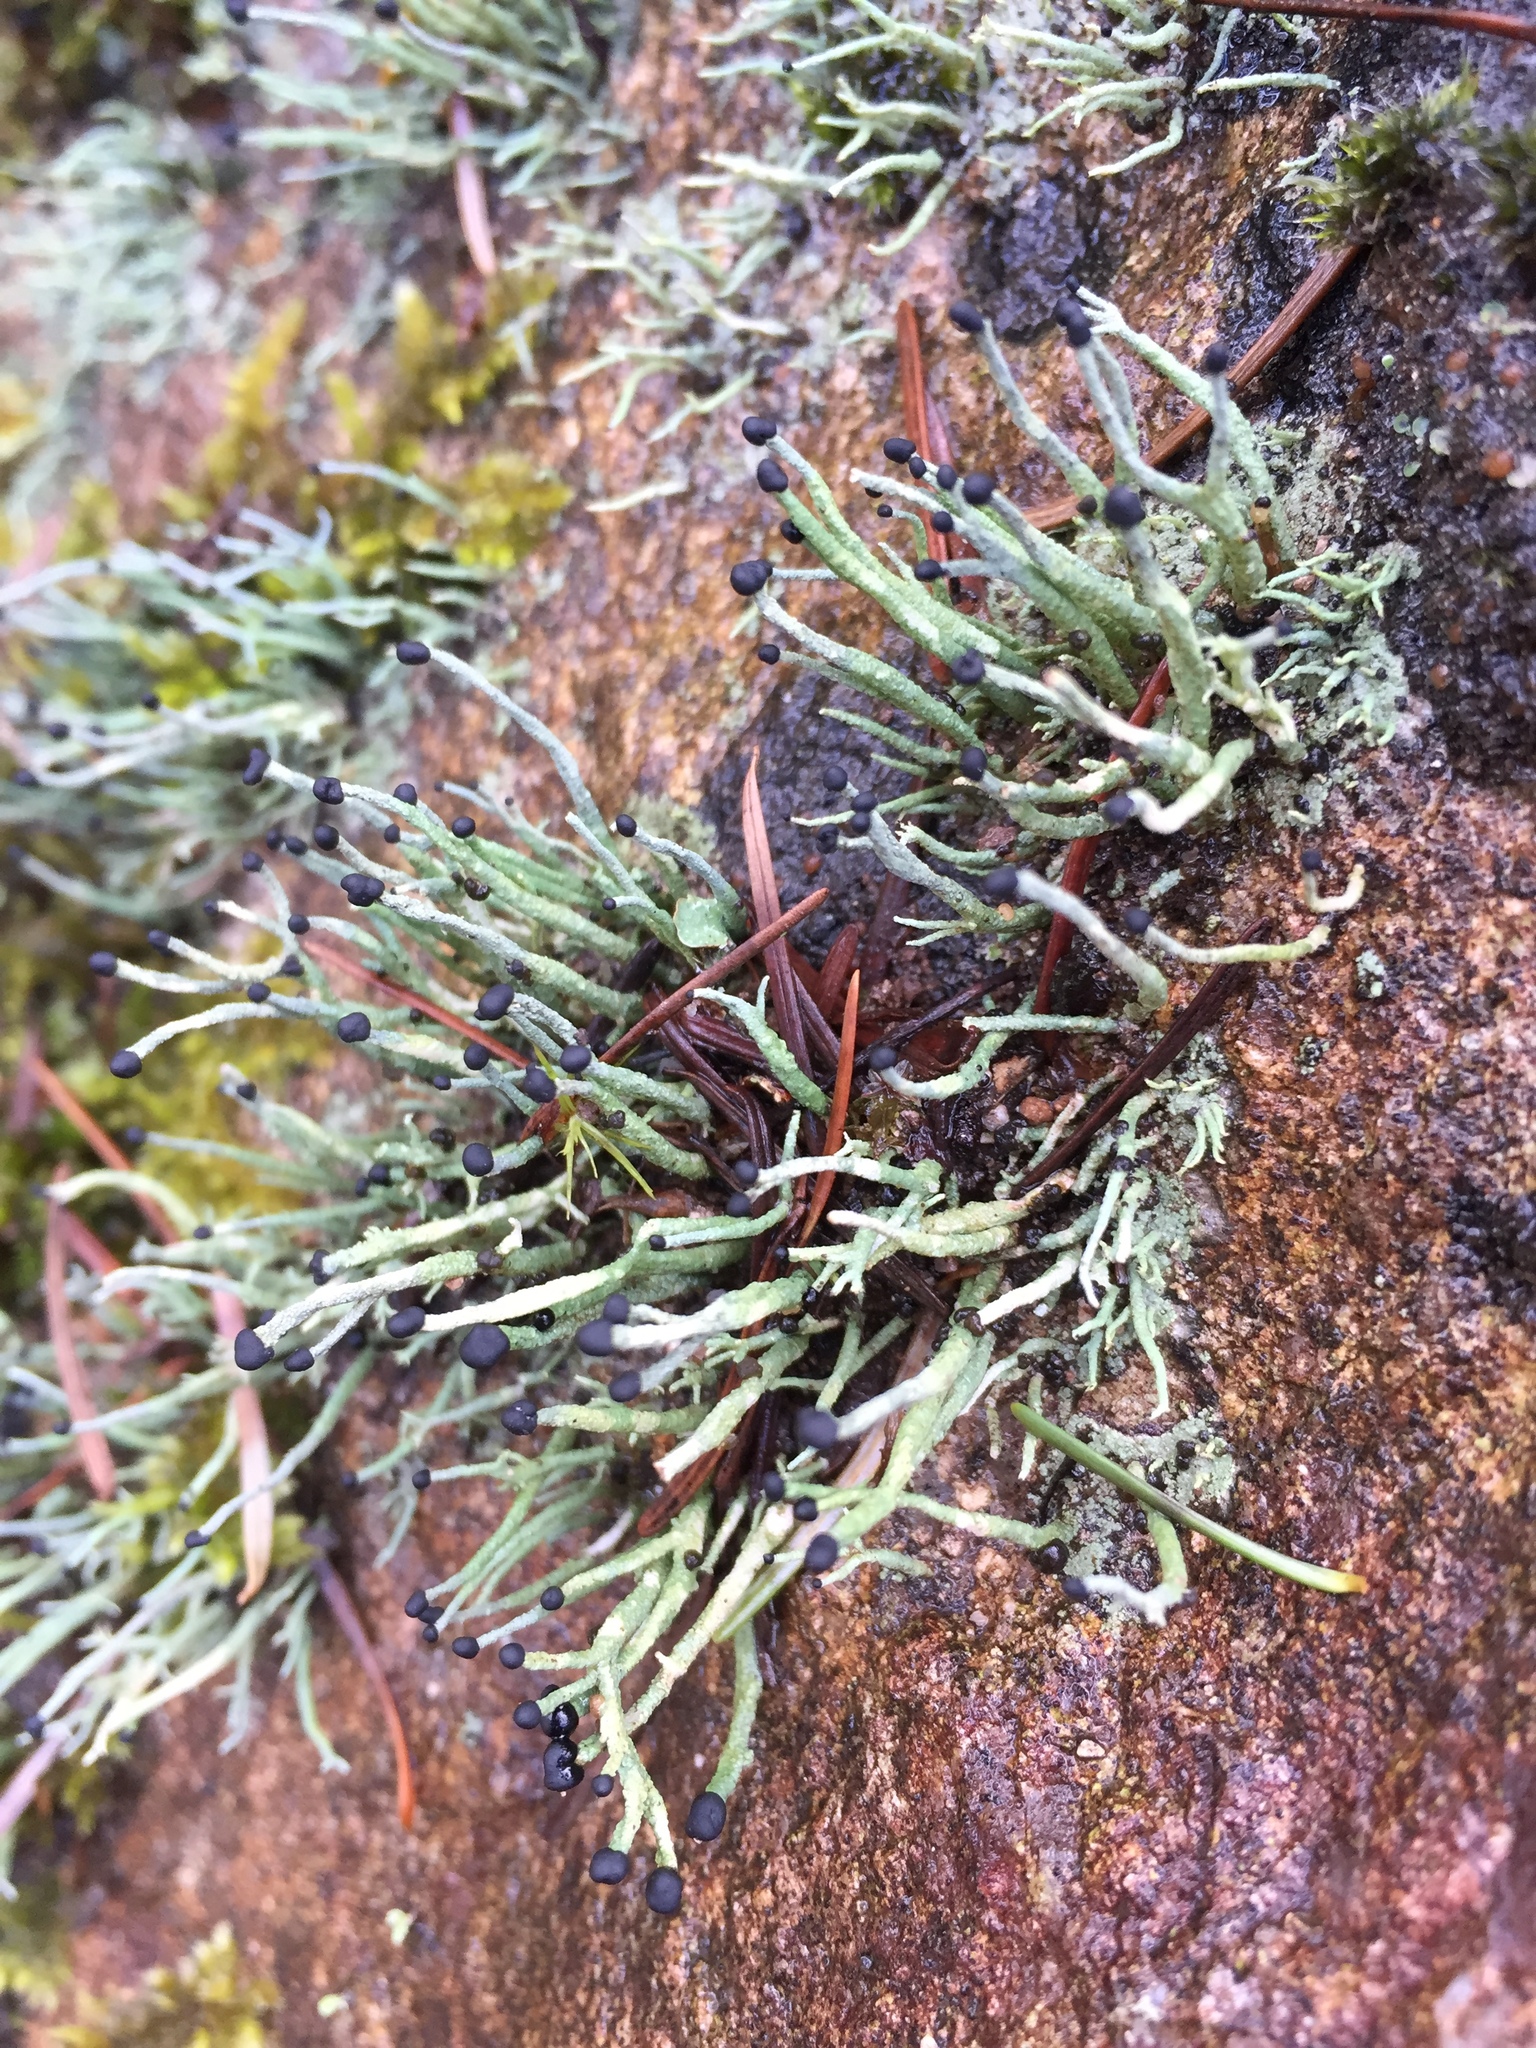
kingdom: Fungi
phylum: Ascomycota
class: Lecanoromycetes
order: Lecanorales
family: Cladoniaceae
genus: Pilophorus
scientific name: Pilophorus acicularis
